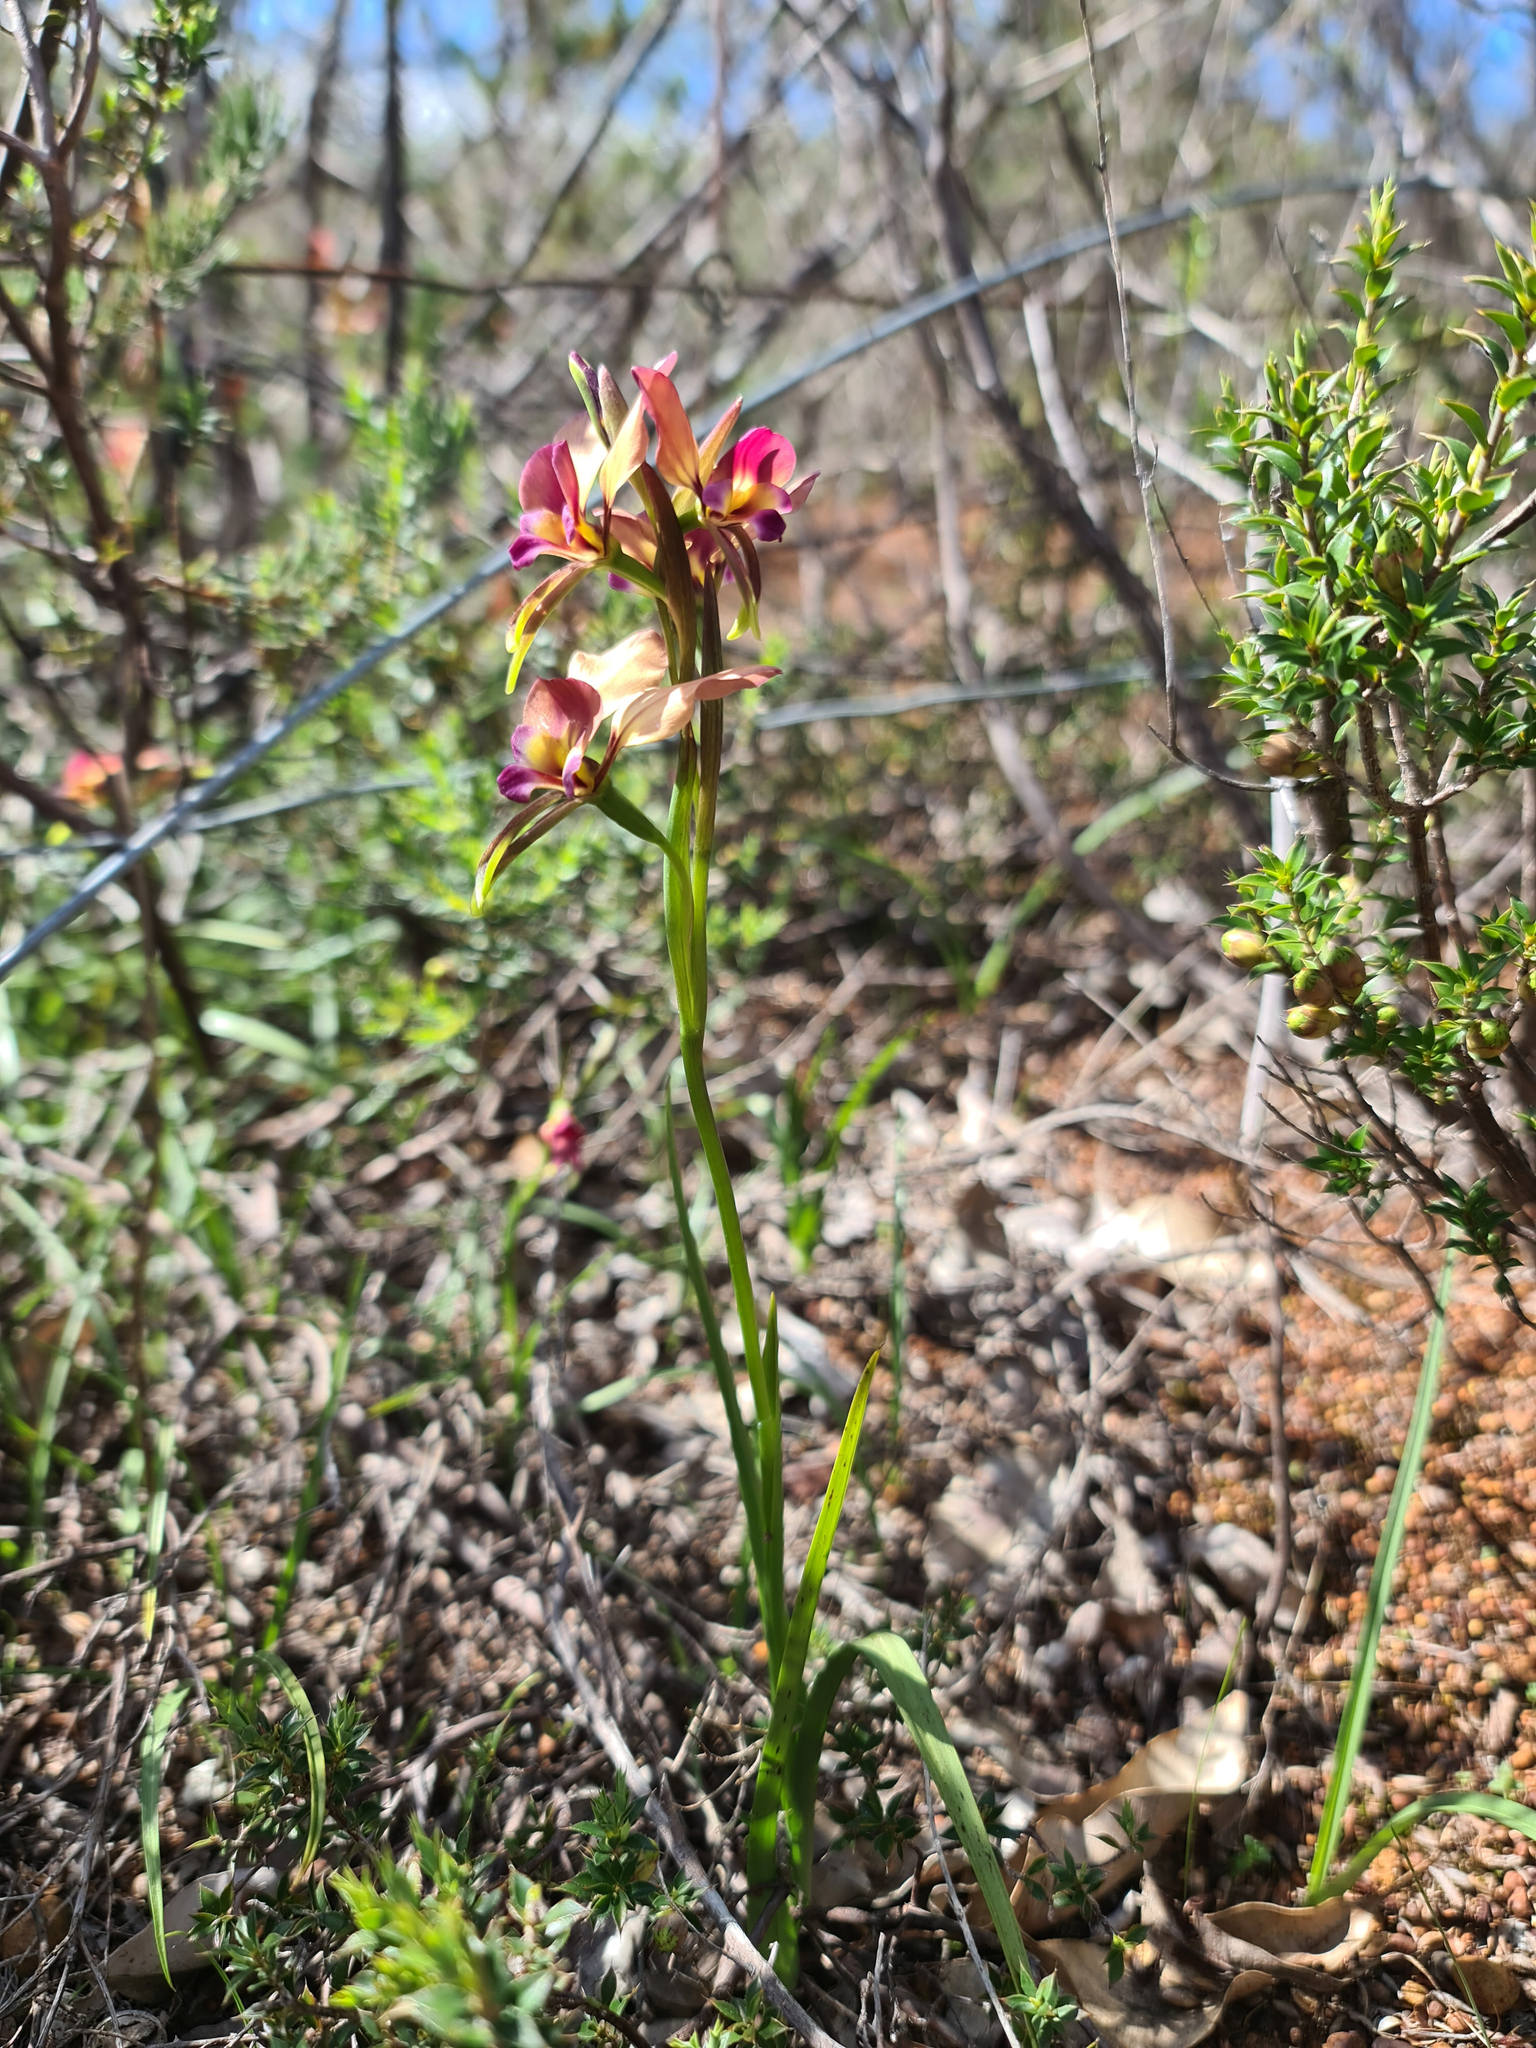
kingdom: Plantae
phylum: Tracheophyta
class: Liliopsida
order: Asparagales
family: Orchidaceae
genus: Diuris
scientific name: Diuris longifolia
